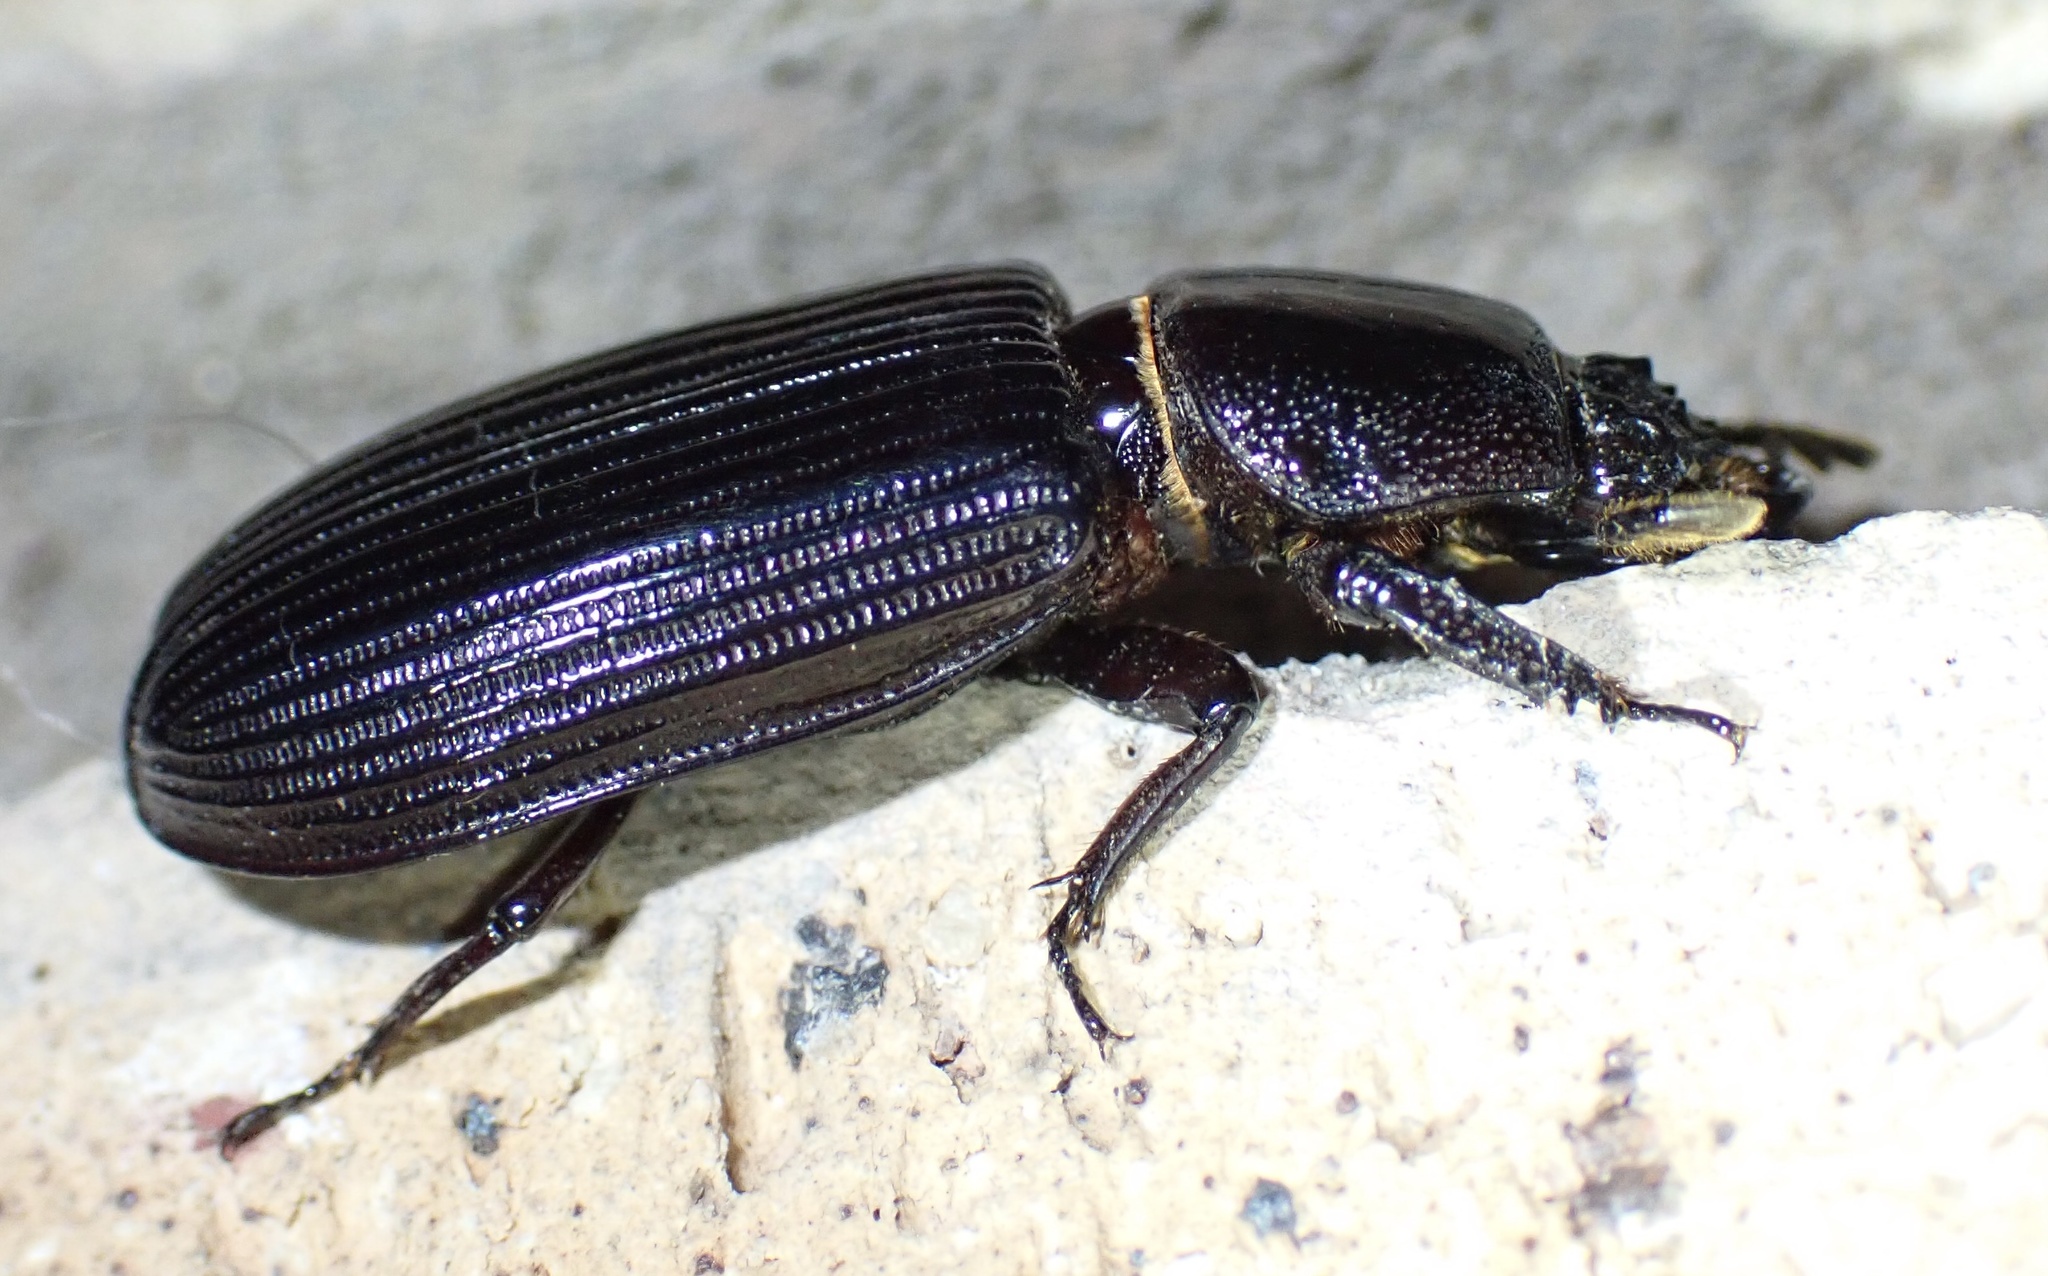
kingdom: Animalia
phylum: Arthropoda
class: Insecta
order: Coleoptera
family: Passalidae
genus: Didimus
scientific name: Didimus sansibaricus
